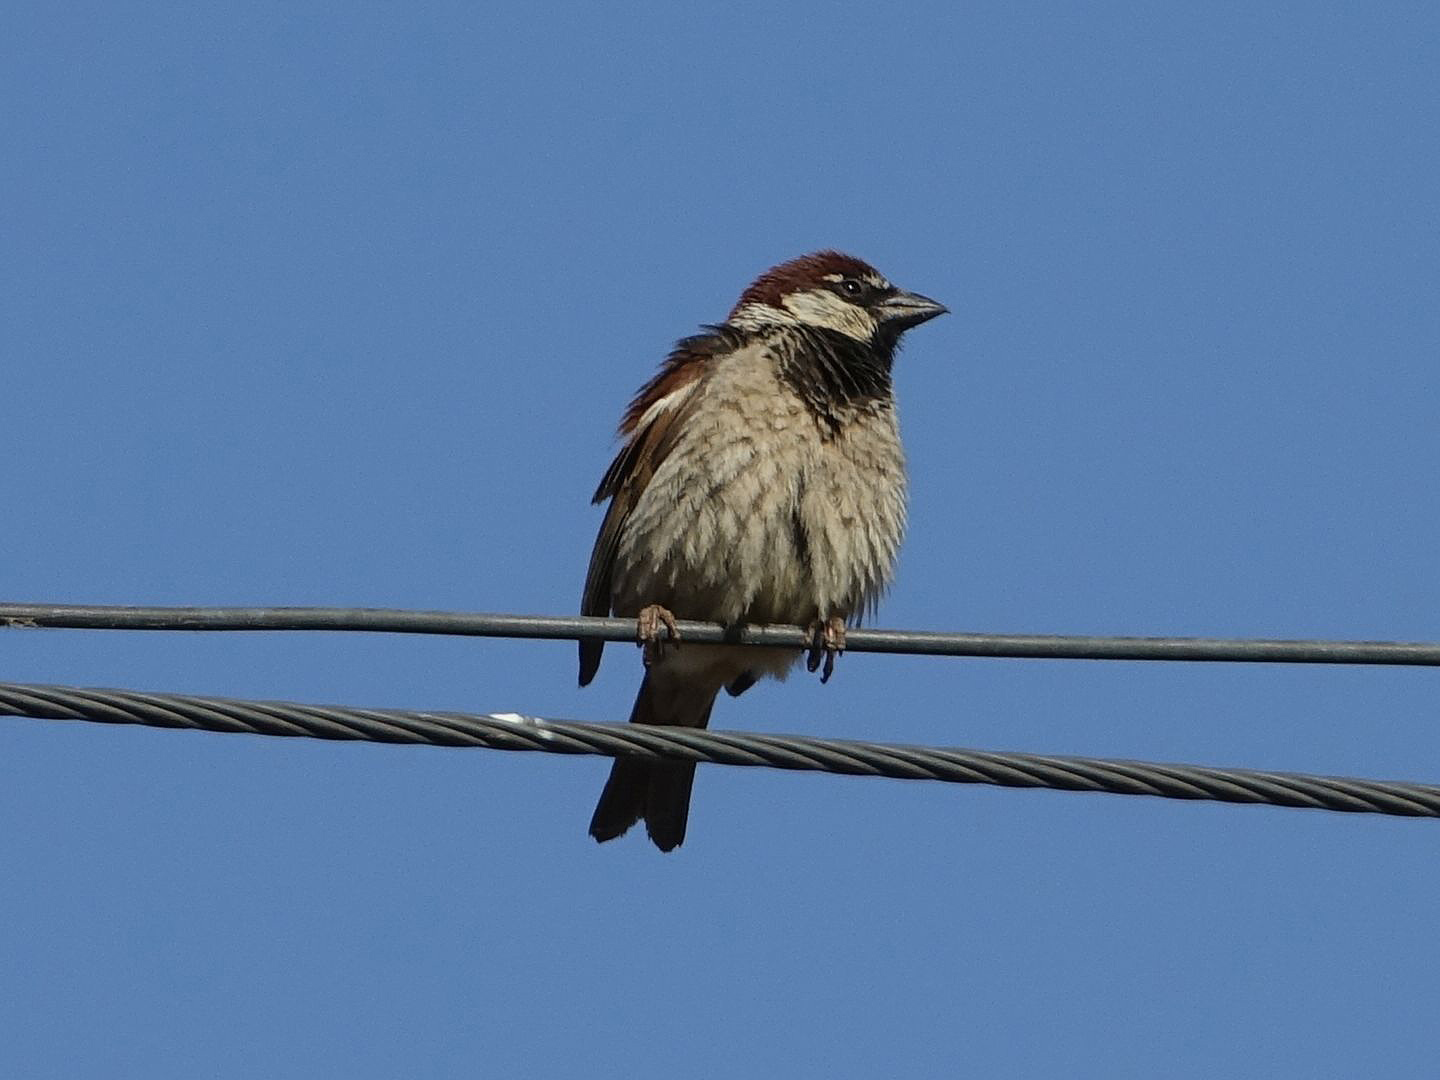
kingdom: Animalia
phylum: Chordata
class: Aves
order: Passeriformes
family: Passeridae
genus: Passer
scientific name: Passer italiae
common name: Italian sparrow
